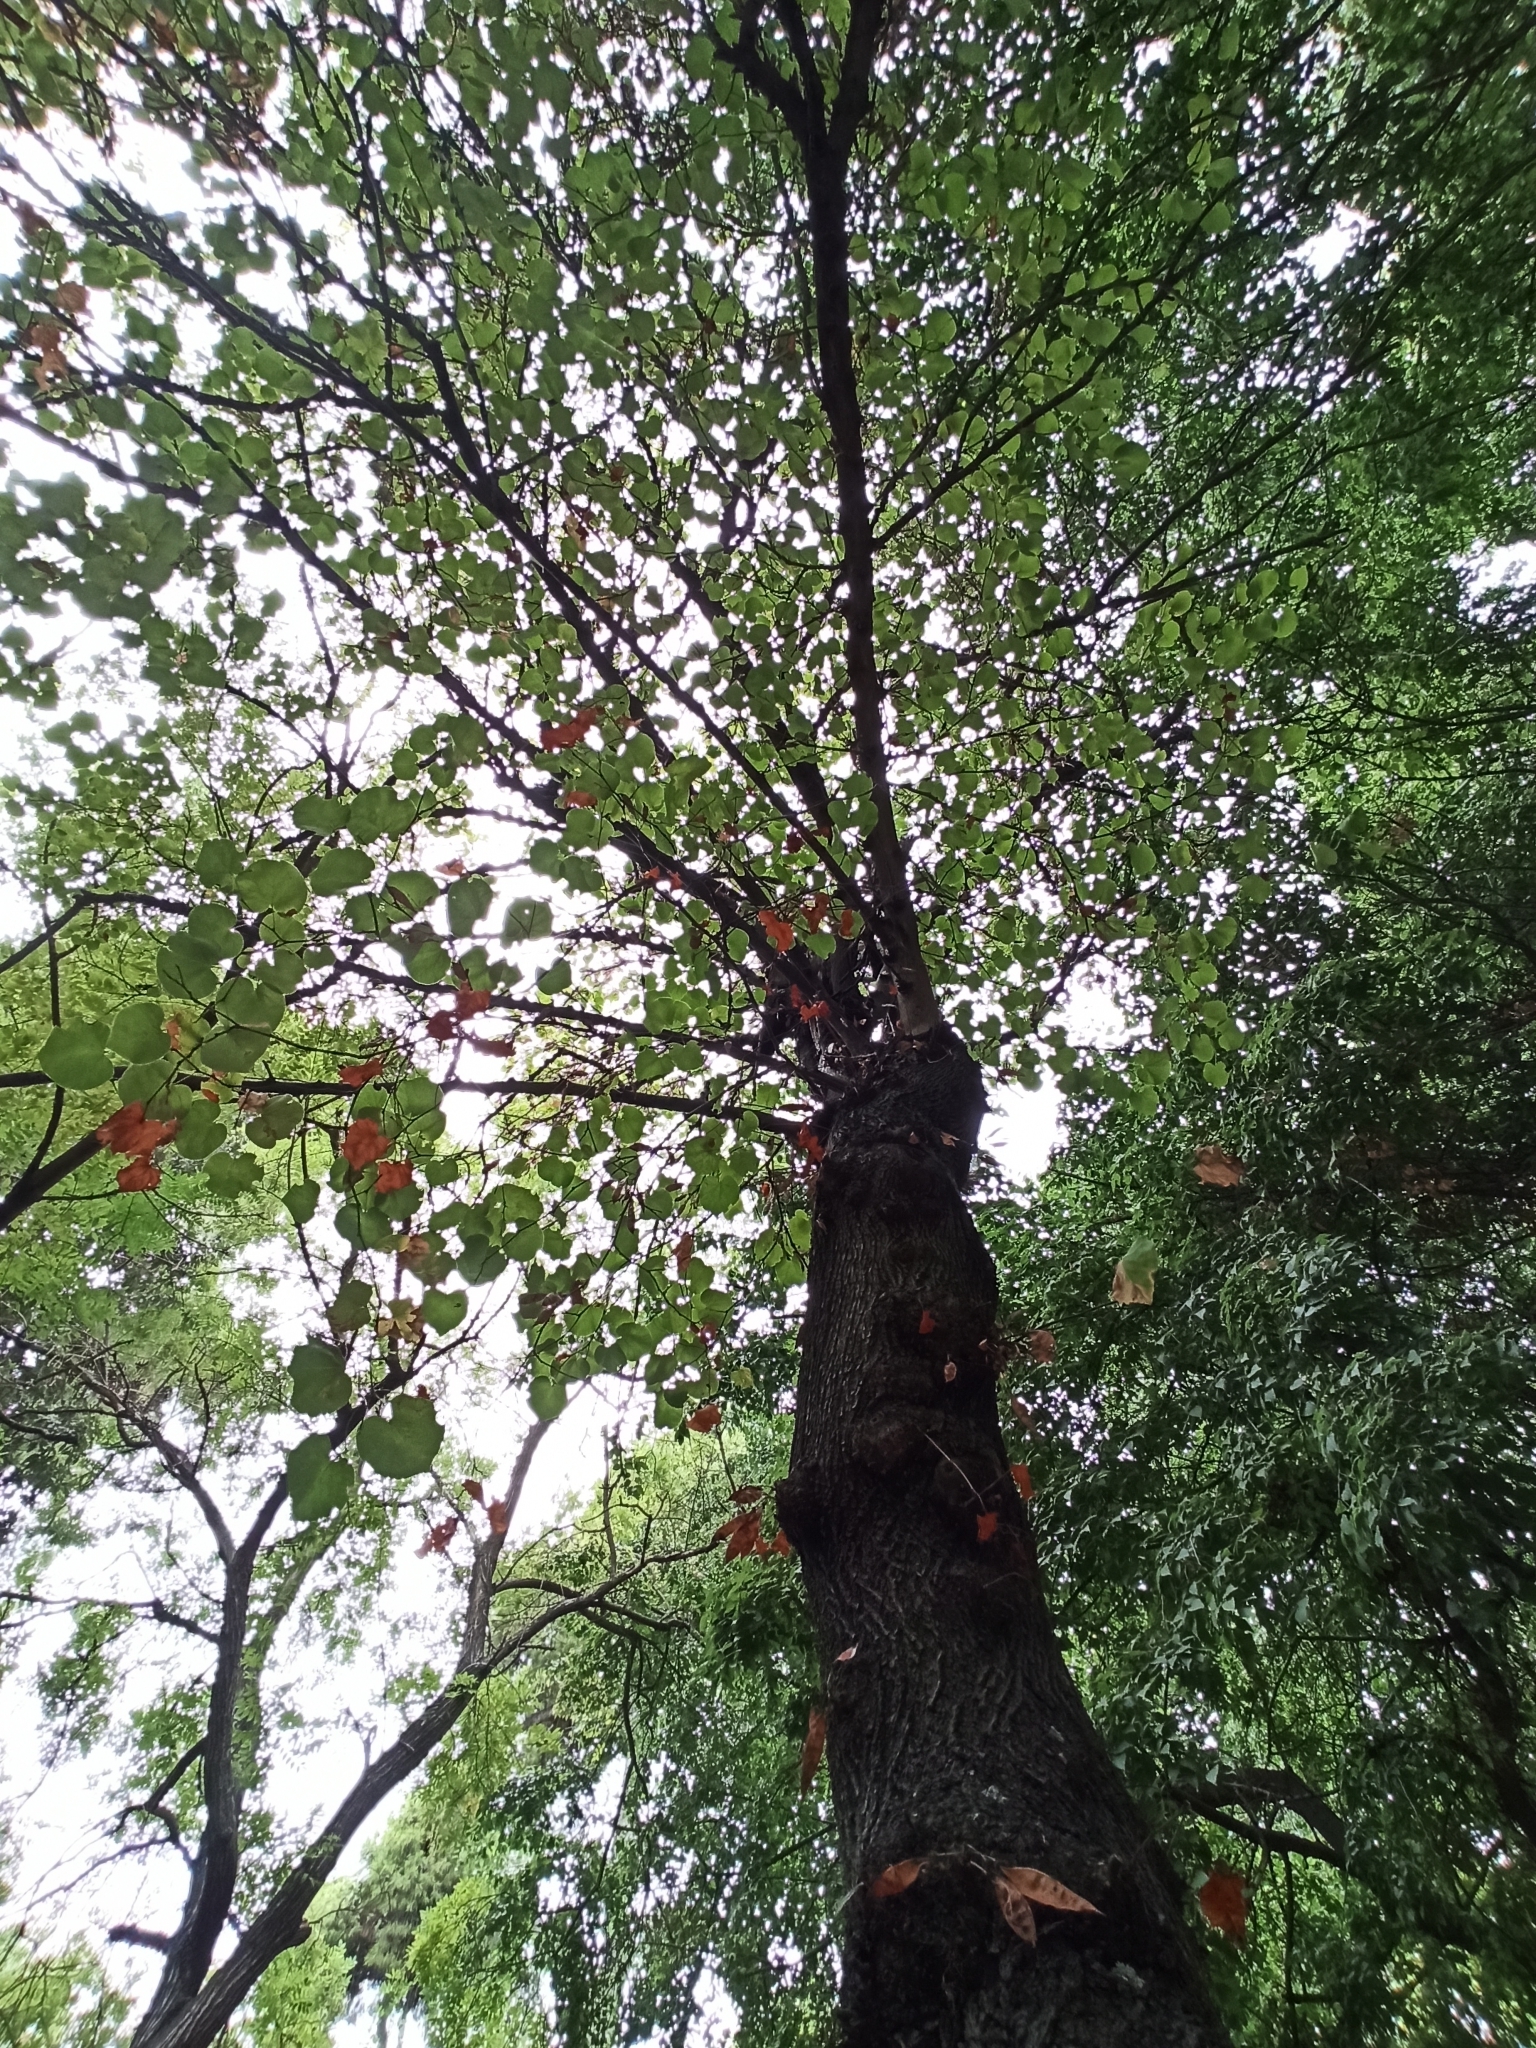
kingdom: Plantae
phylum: Tracheophyta
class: Magnoliopsida
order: Fabales
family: Fabaceae
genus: Cercis
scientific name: Cercis siliquastrum
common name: Judas tree
